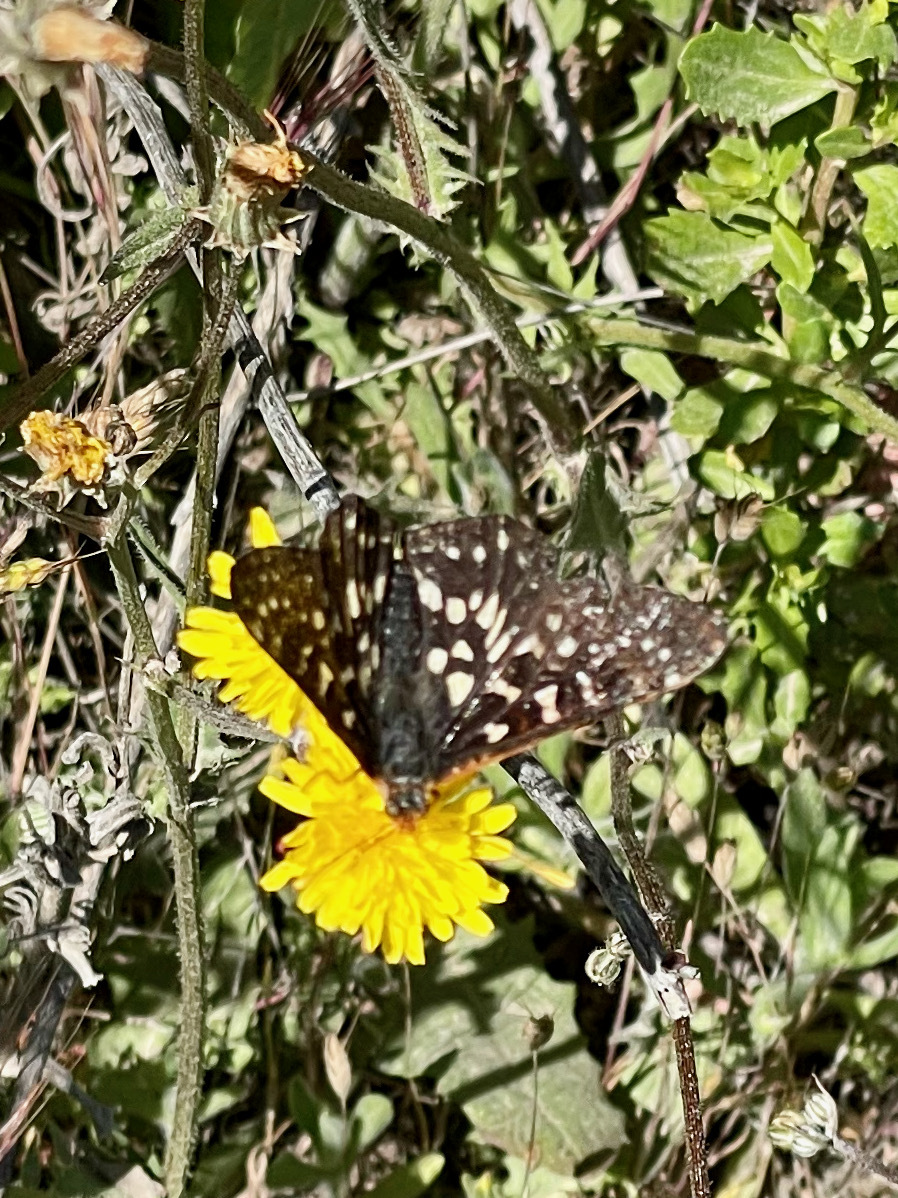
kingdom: Animalia
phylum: Arthropoda
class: Insecta
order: Lepidoptera
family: Nymphalidae
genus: Occidryas
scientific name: Occidryas chalcedona
